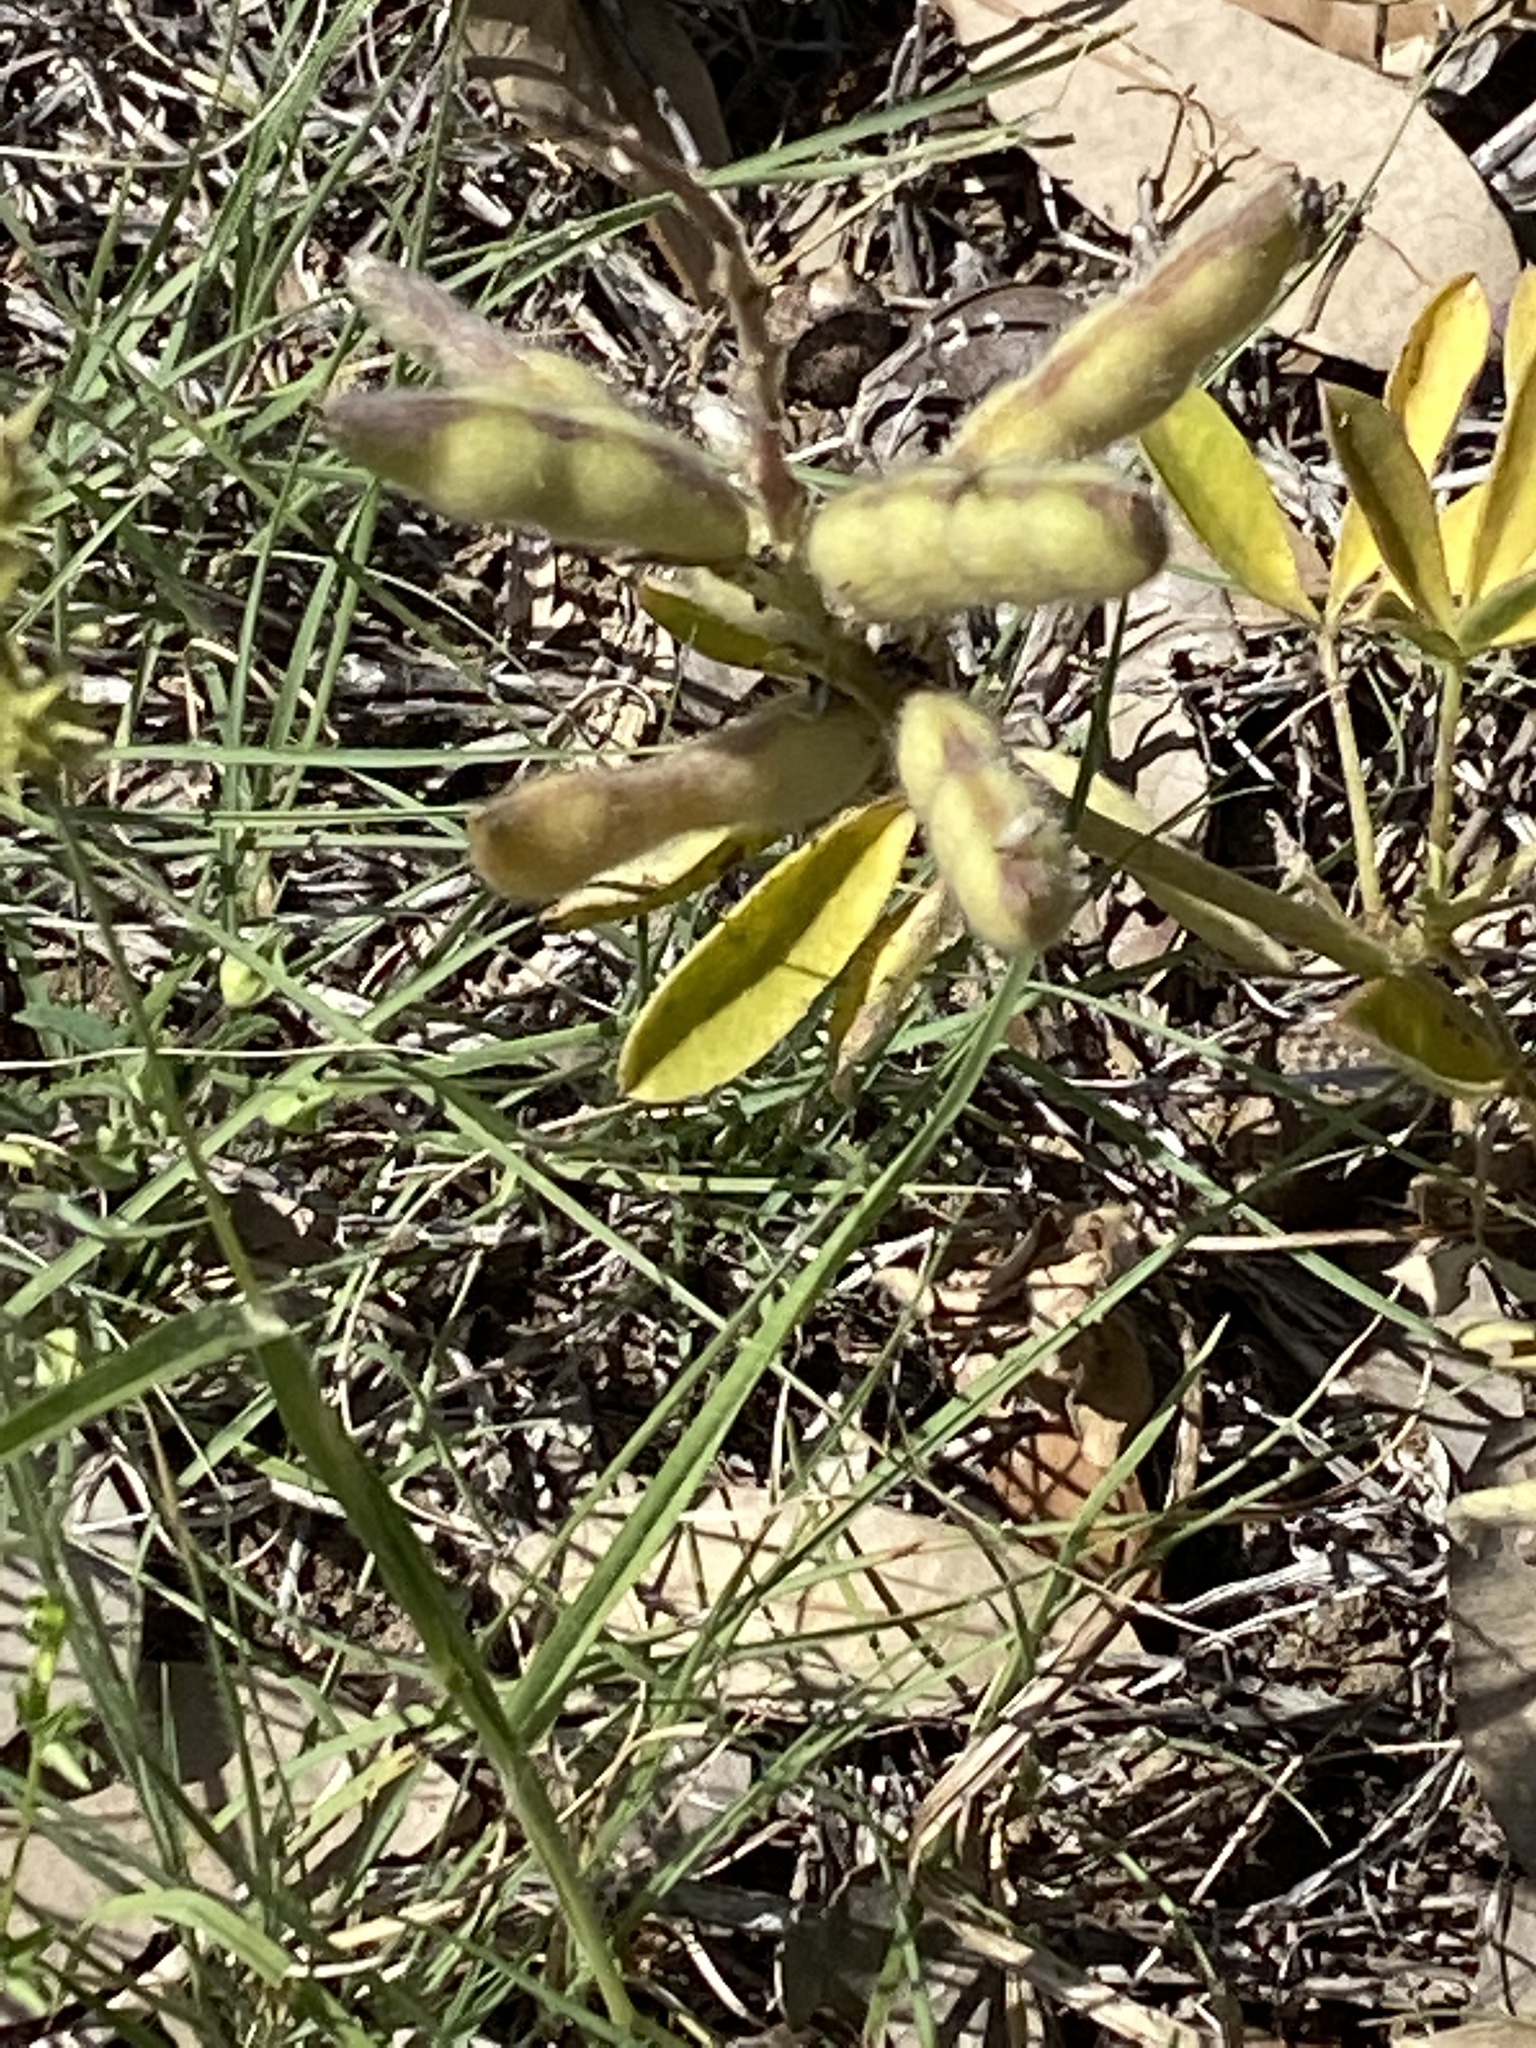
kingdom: Plantae
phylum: Tracheophyta
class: Magnoliopsida
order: Fabales
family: Fabaceae
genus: Lupinus
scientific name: Lupinus texensis
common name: Texas bluebonnet
